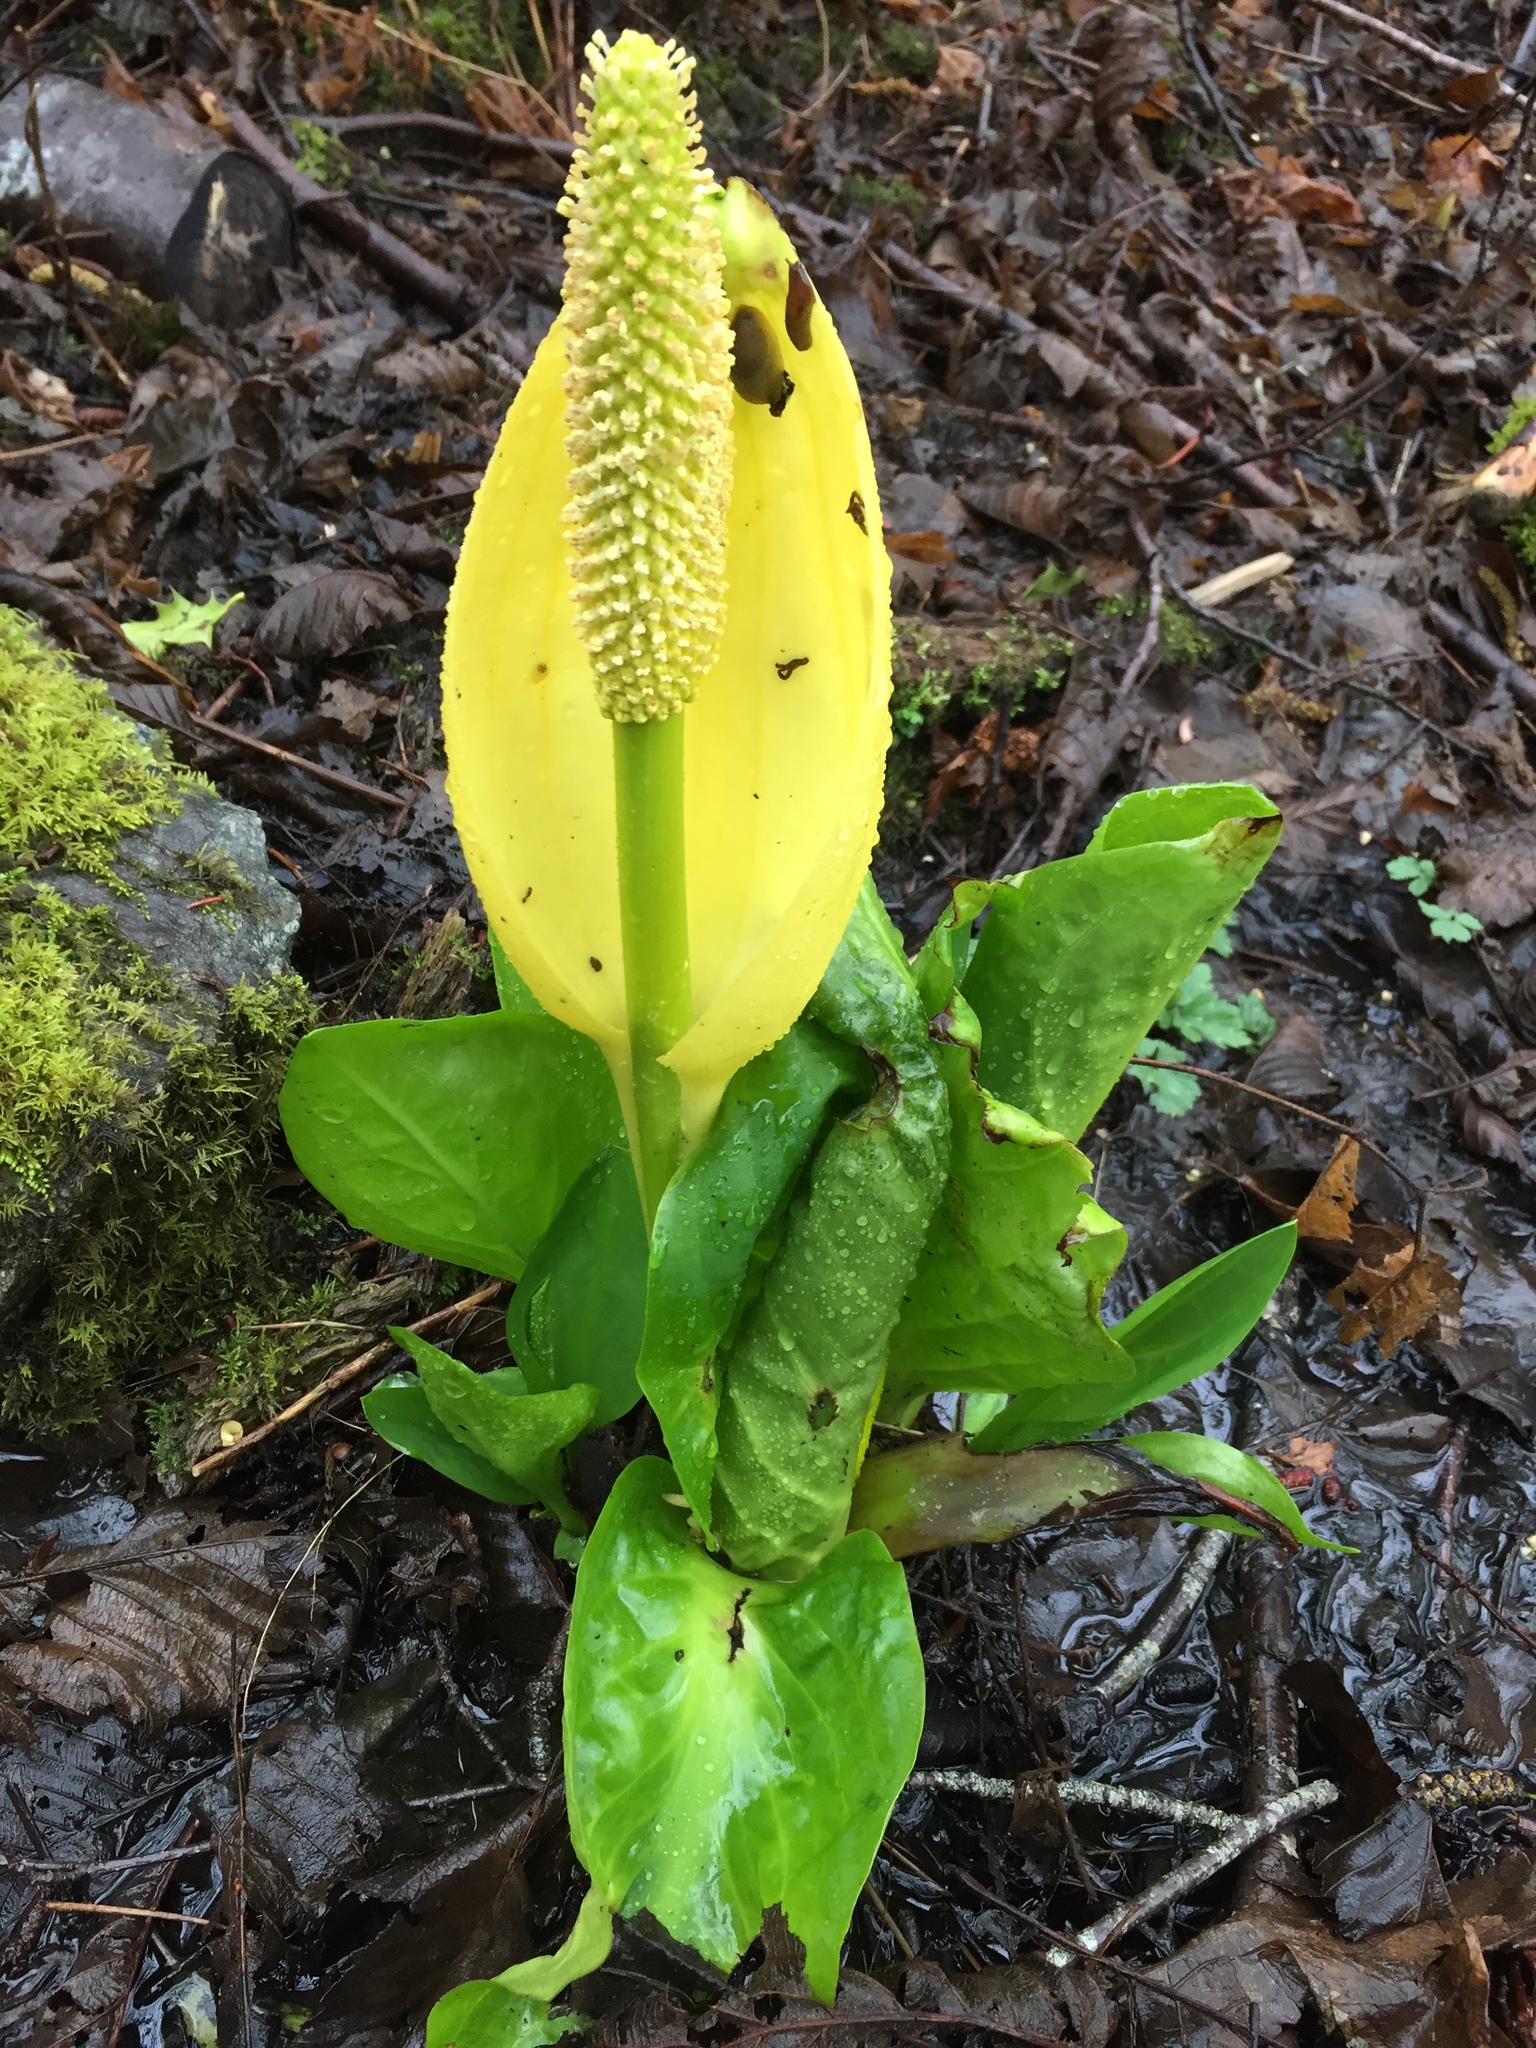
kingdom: Plantae
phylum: Tracheophyta
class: Liliopsida
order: Alismatales
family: Araceae
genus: Lysichiton
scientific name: Lysichiton americanus
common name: American skunk cabbage
